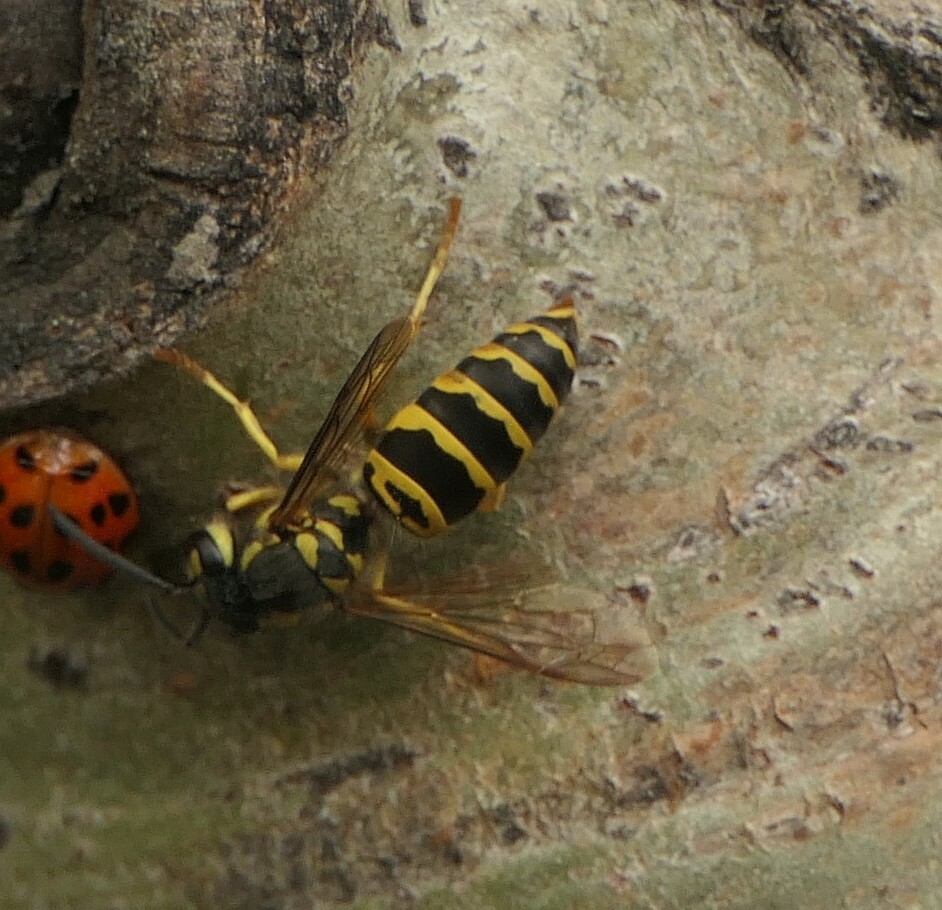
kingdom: Animalia
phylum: Arthropoda
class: Insecta
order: Hymenoptera
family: Vespidae
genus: Vespula
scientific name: Vespula maculifrons
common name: Eastern yellowjacket
